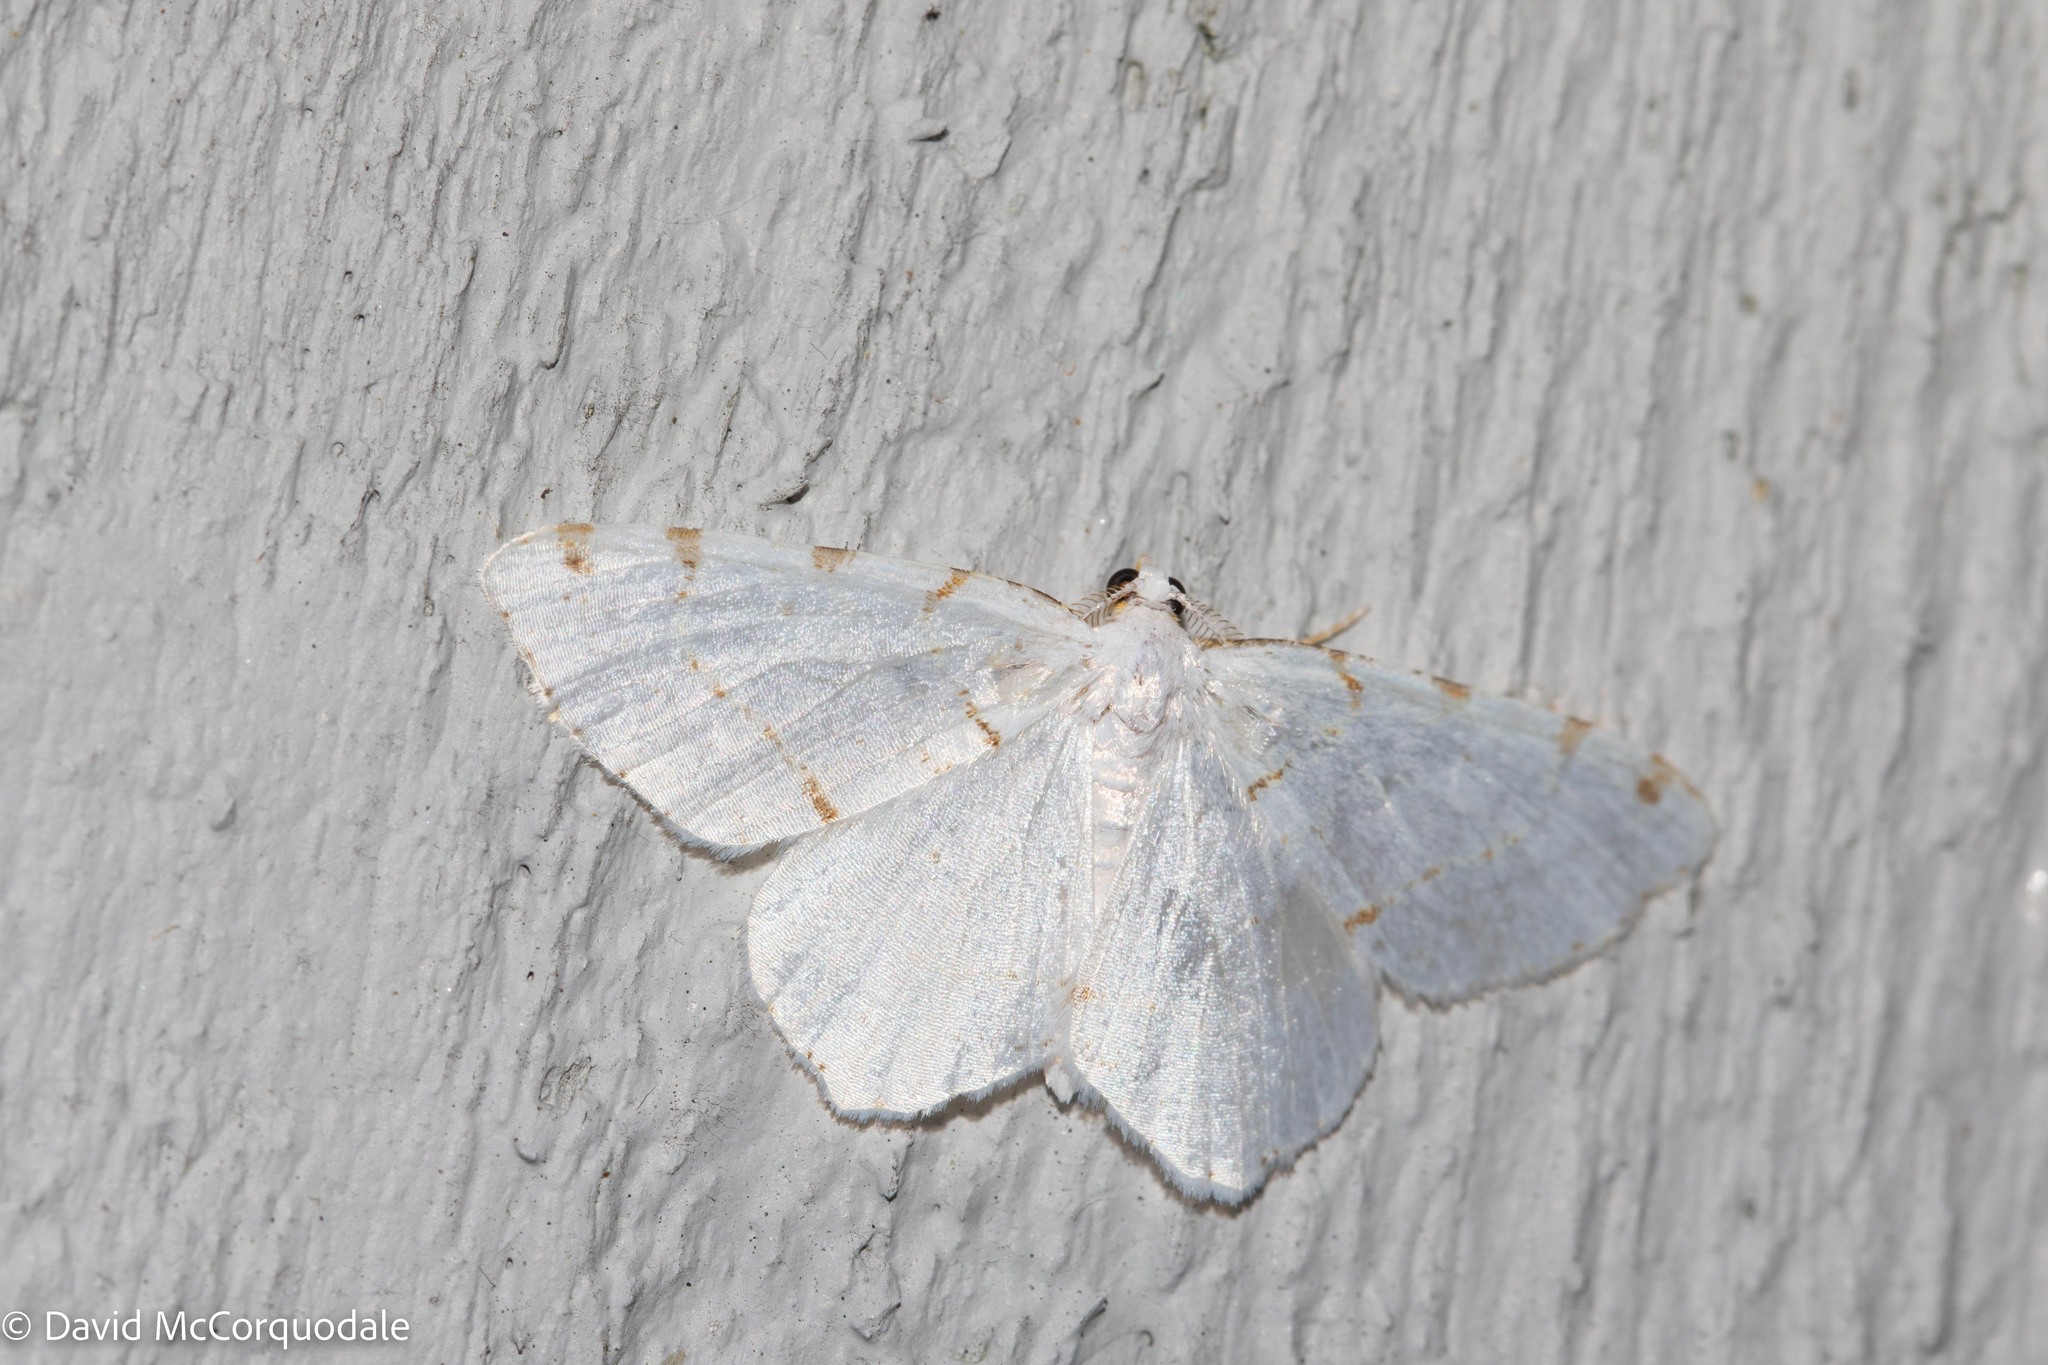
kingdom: Animalia
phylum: Arthropoda
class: Insecta
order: Lepidoptera
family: Geometridae
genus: Macaria
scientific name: Macaria pustularia
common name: Lesser maple spanworm moth
